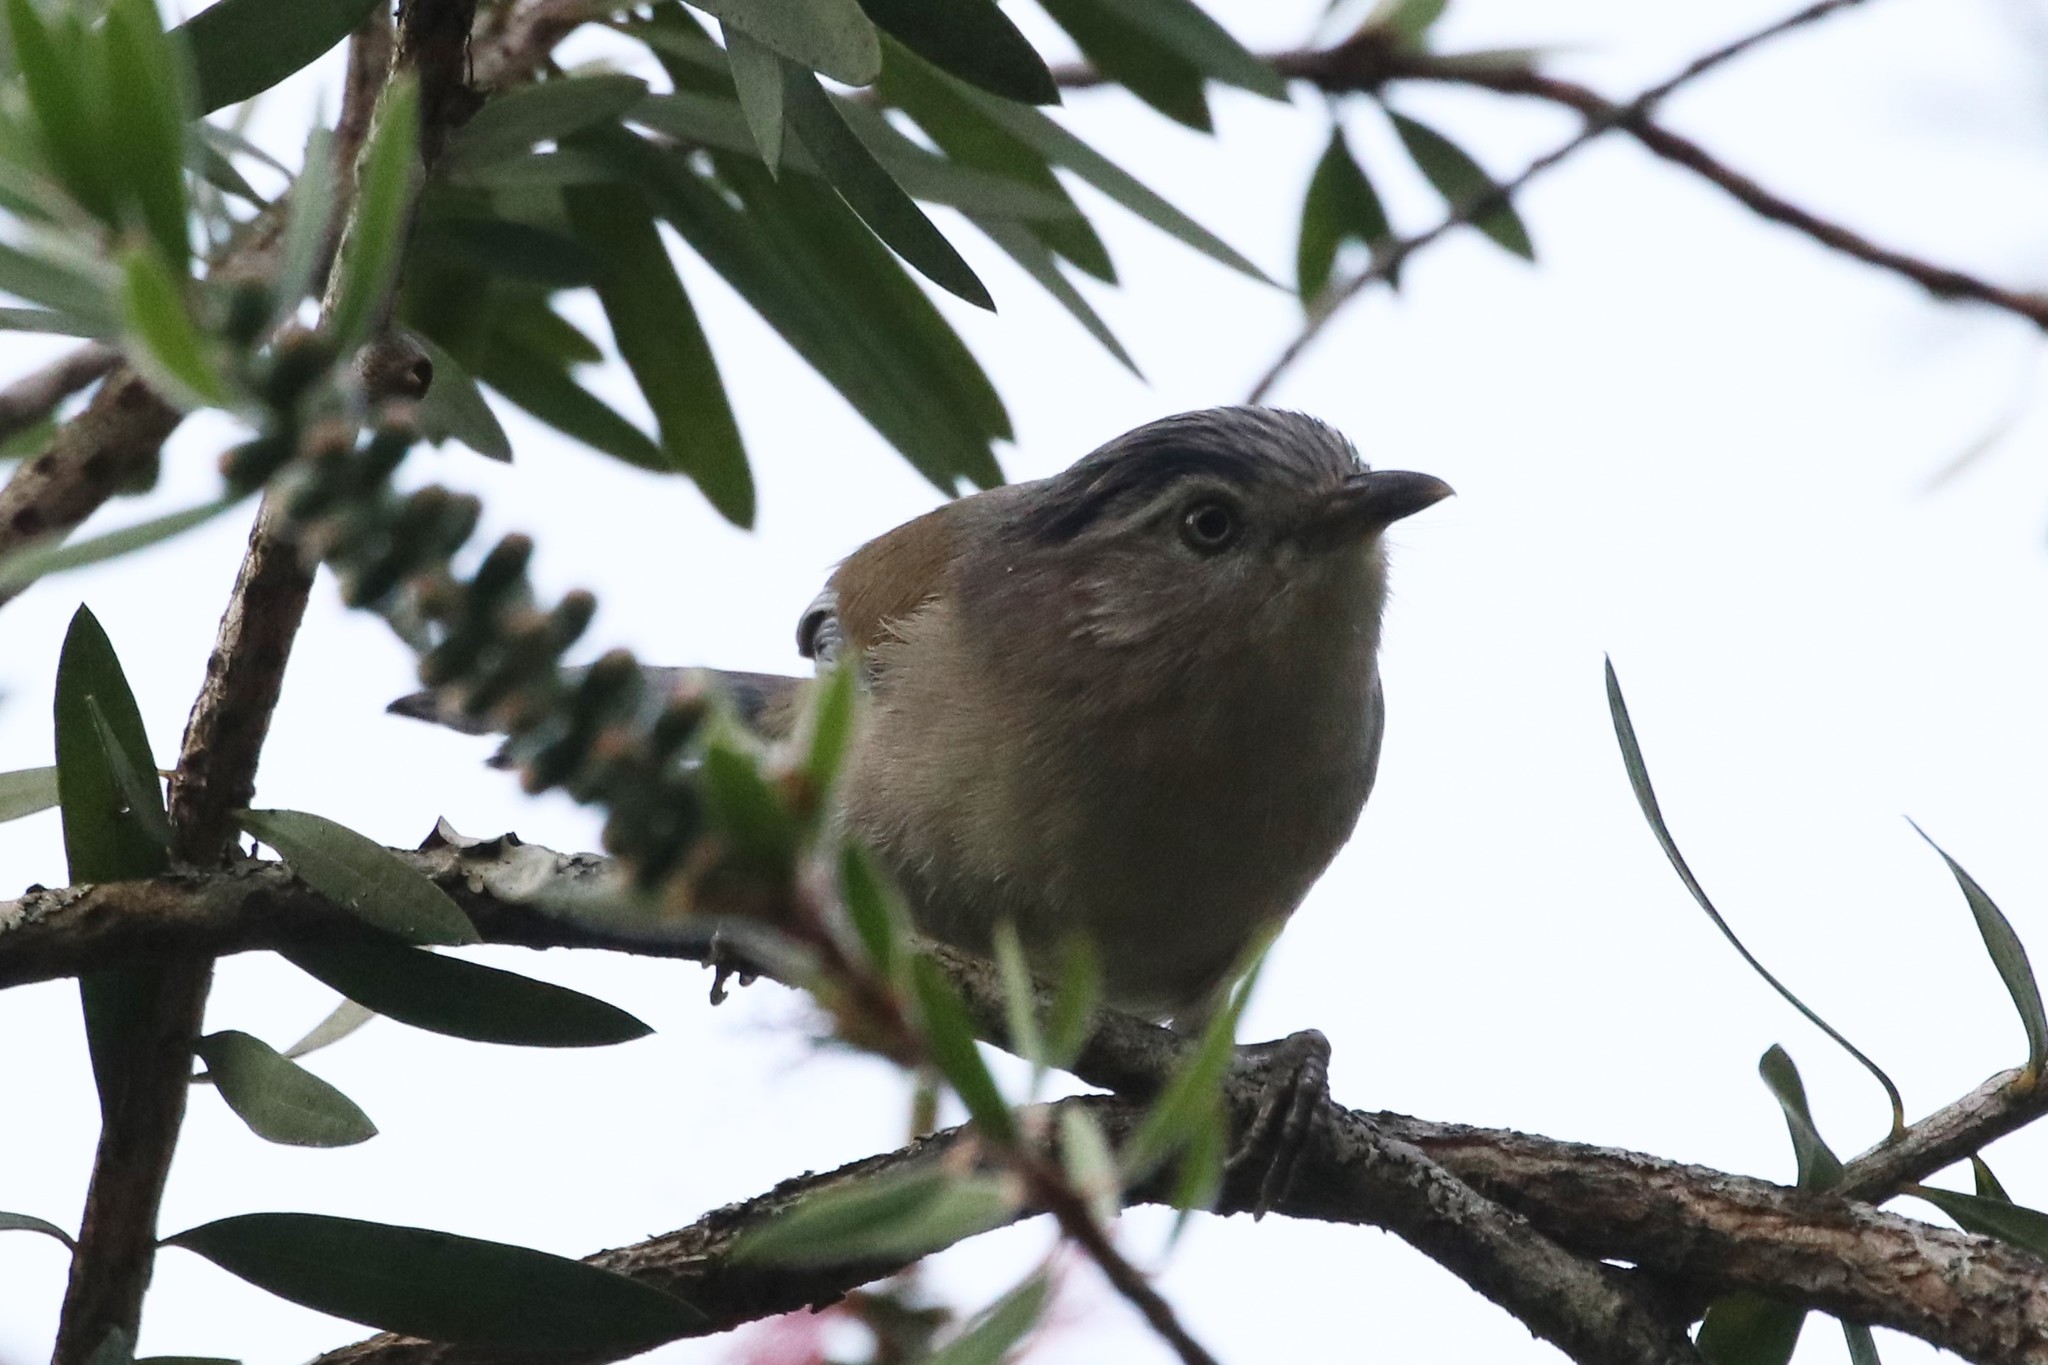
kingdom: Animalia
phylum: Chordata
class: Aves
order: Passeriformes
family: Leiothrichidae
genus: Minla
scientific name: Minla cyanouroptera
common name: Blue-winged minla
